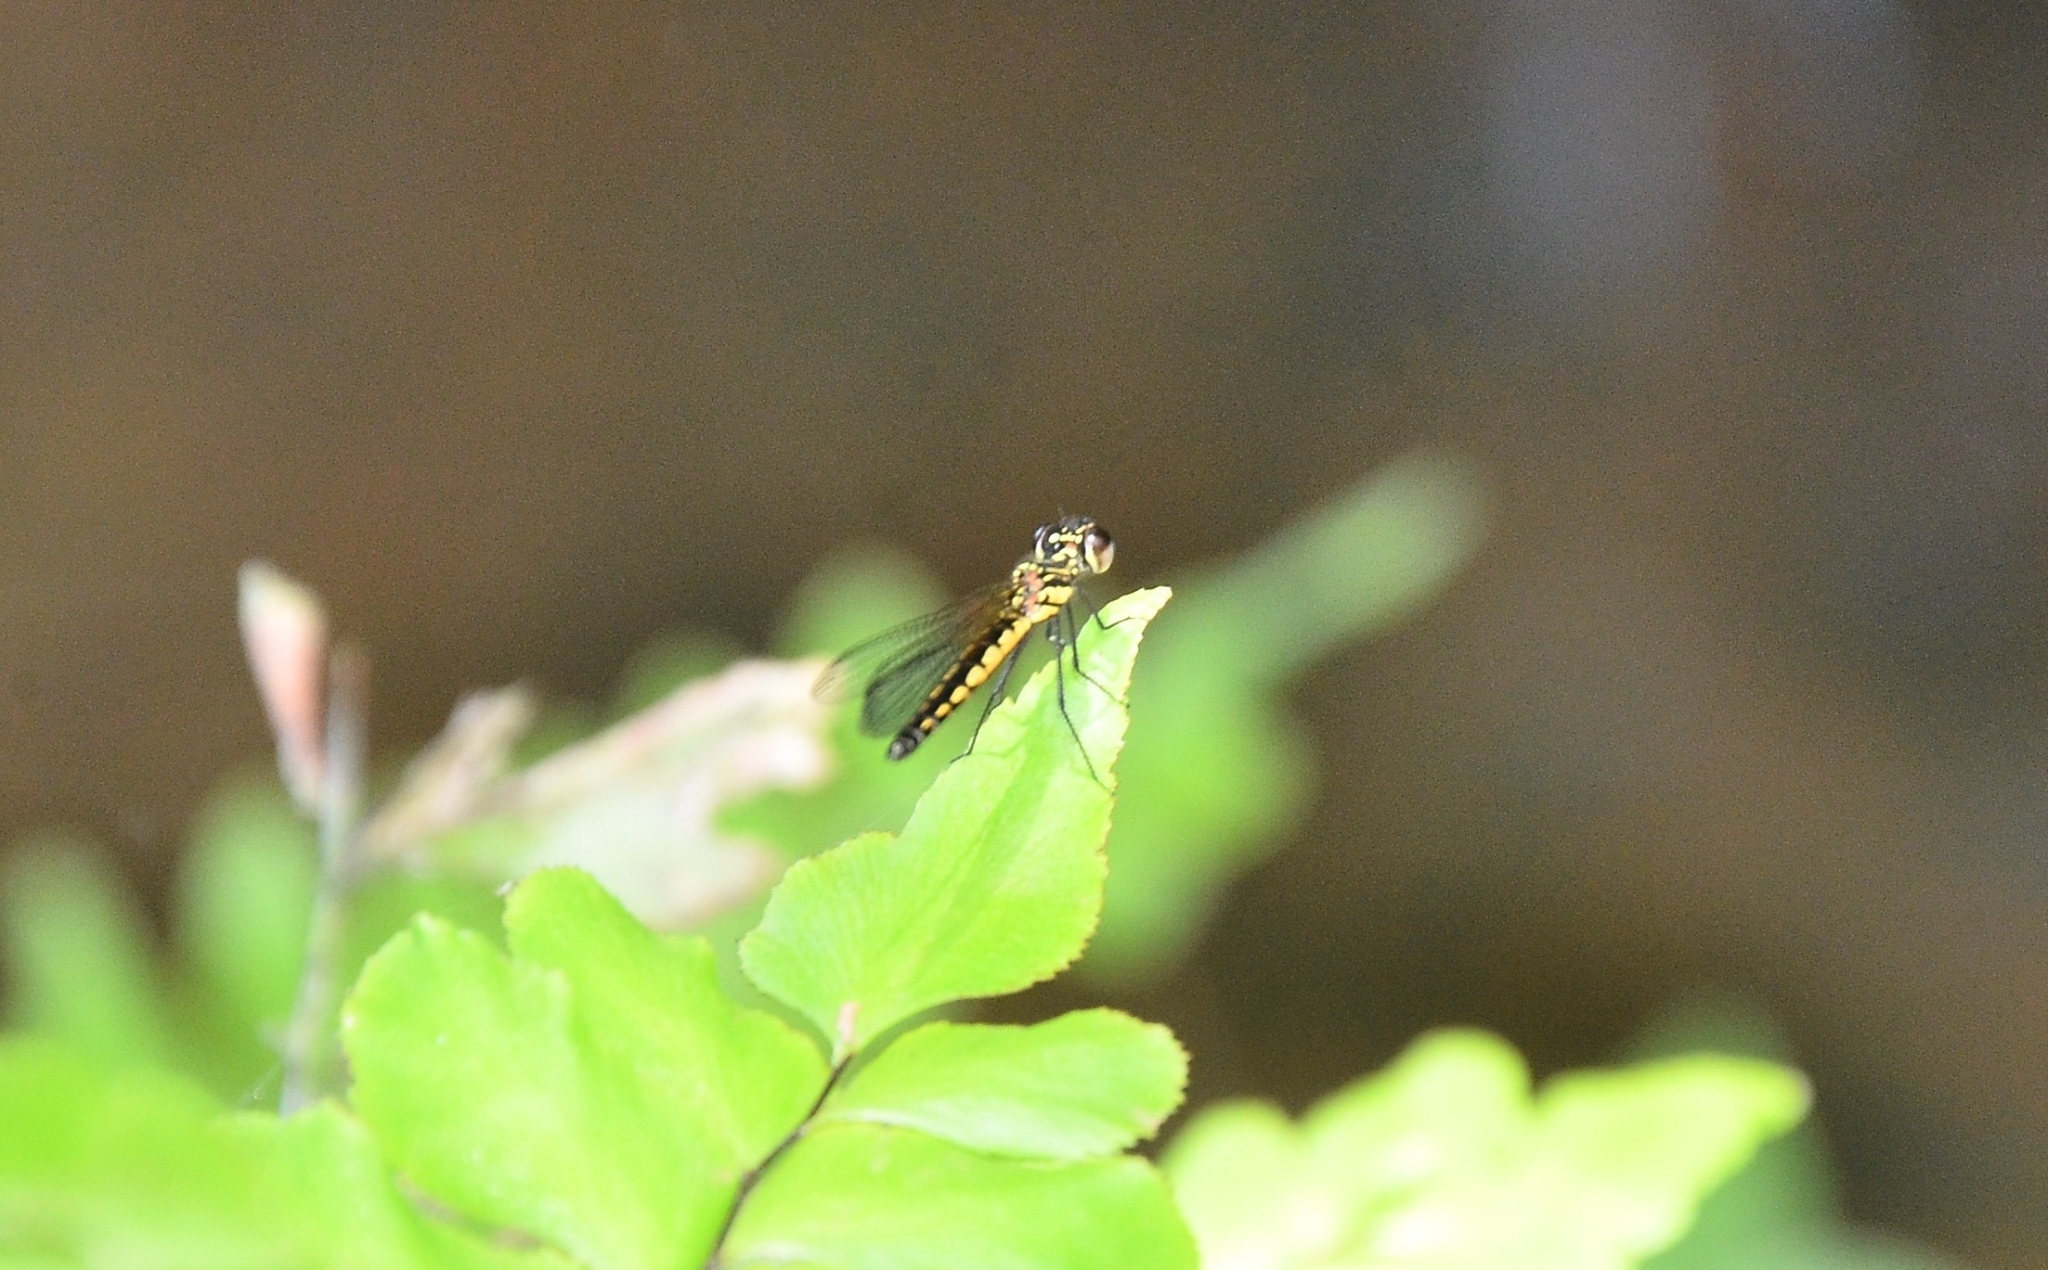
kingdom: Animalia
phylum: Arthropoda
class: Insecta
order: Odonata
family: Chlorocyphidae
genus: Libellago
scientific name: Libellago indica
